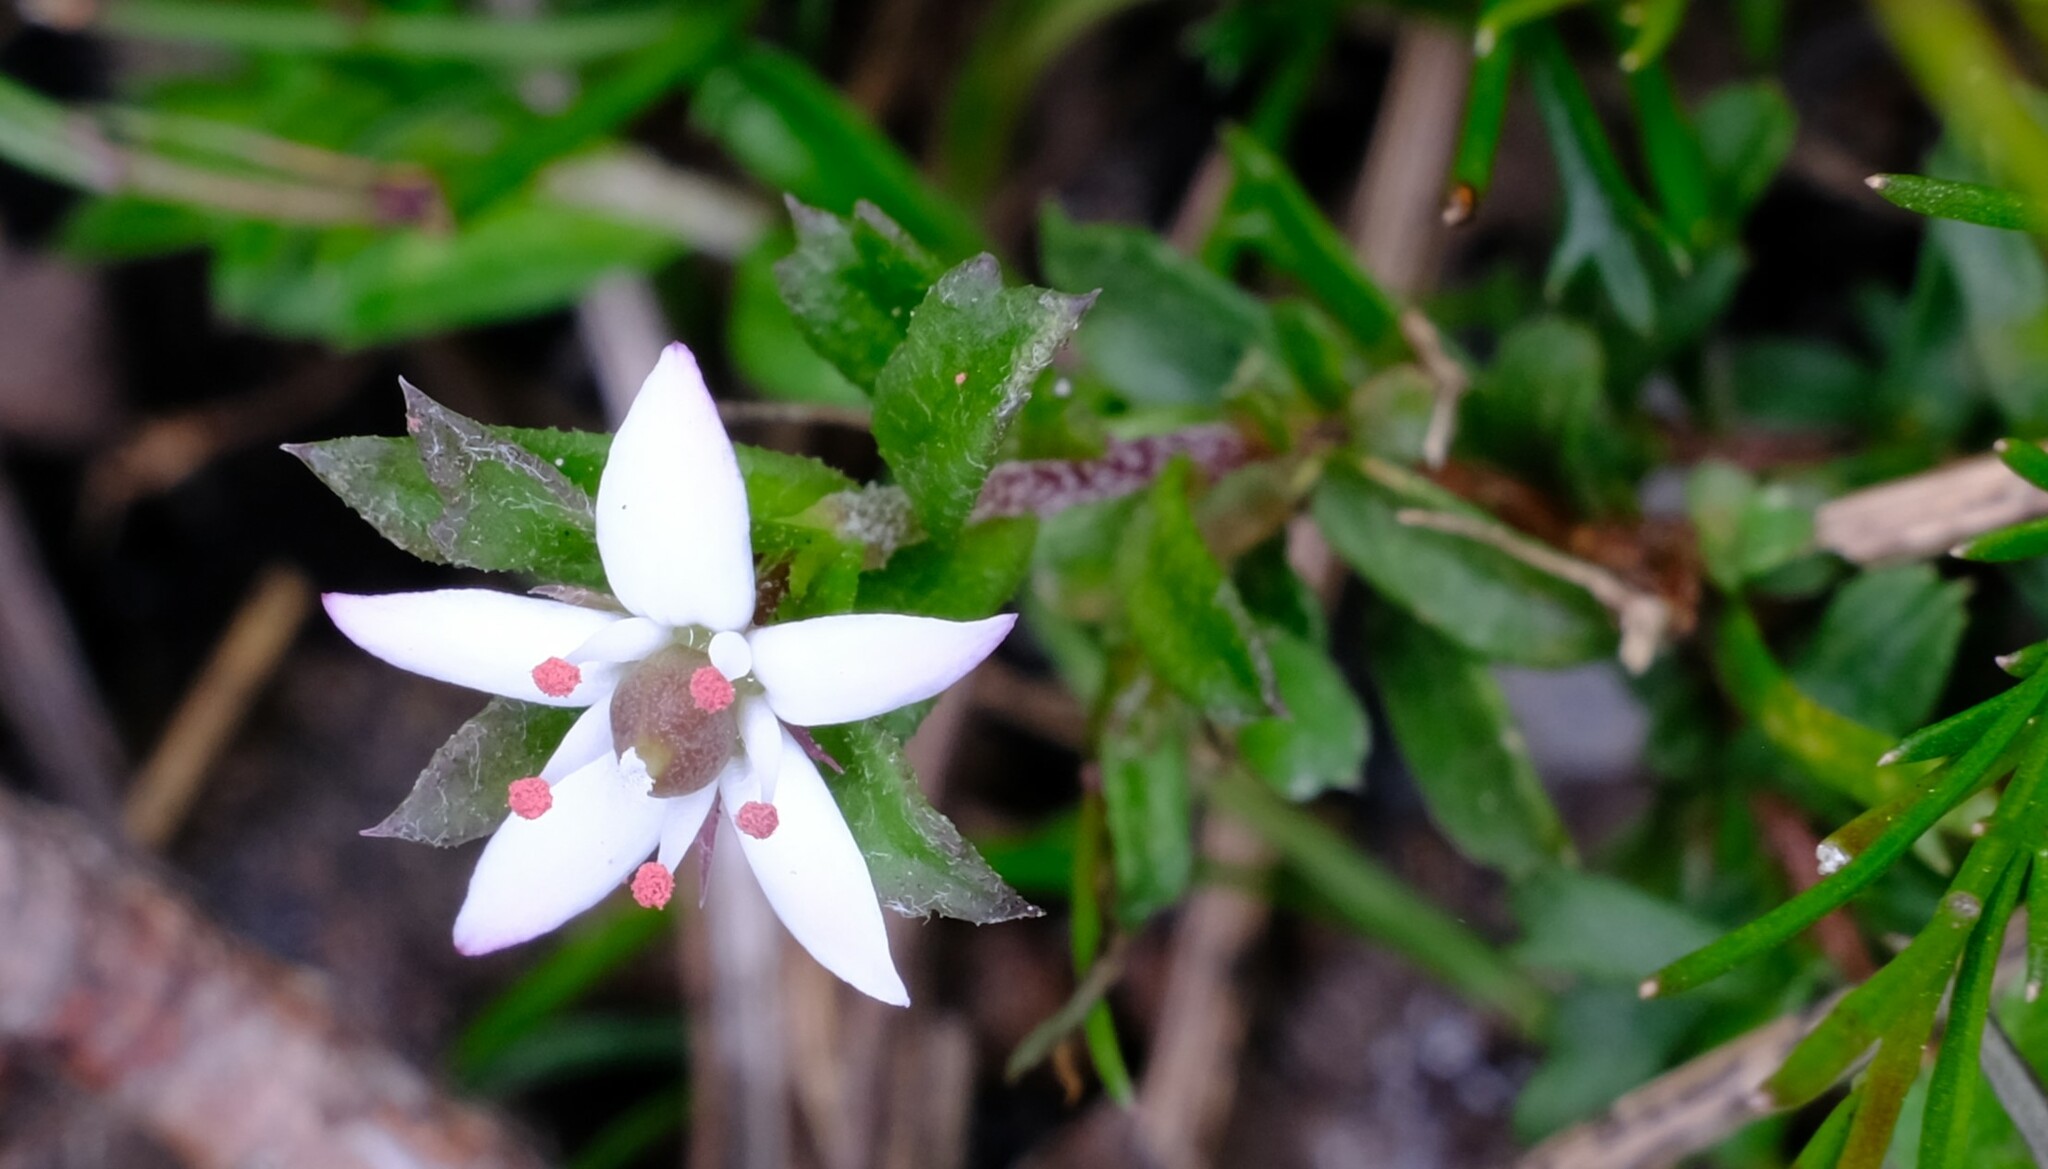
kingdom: Plantae
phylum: Tracheophyta
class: Magnoliopsida
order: Apiales
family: Pittosporaceae
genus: Rhytidosporum
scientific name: Rhytidosporum procumbens
